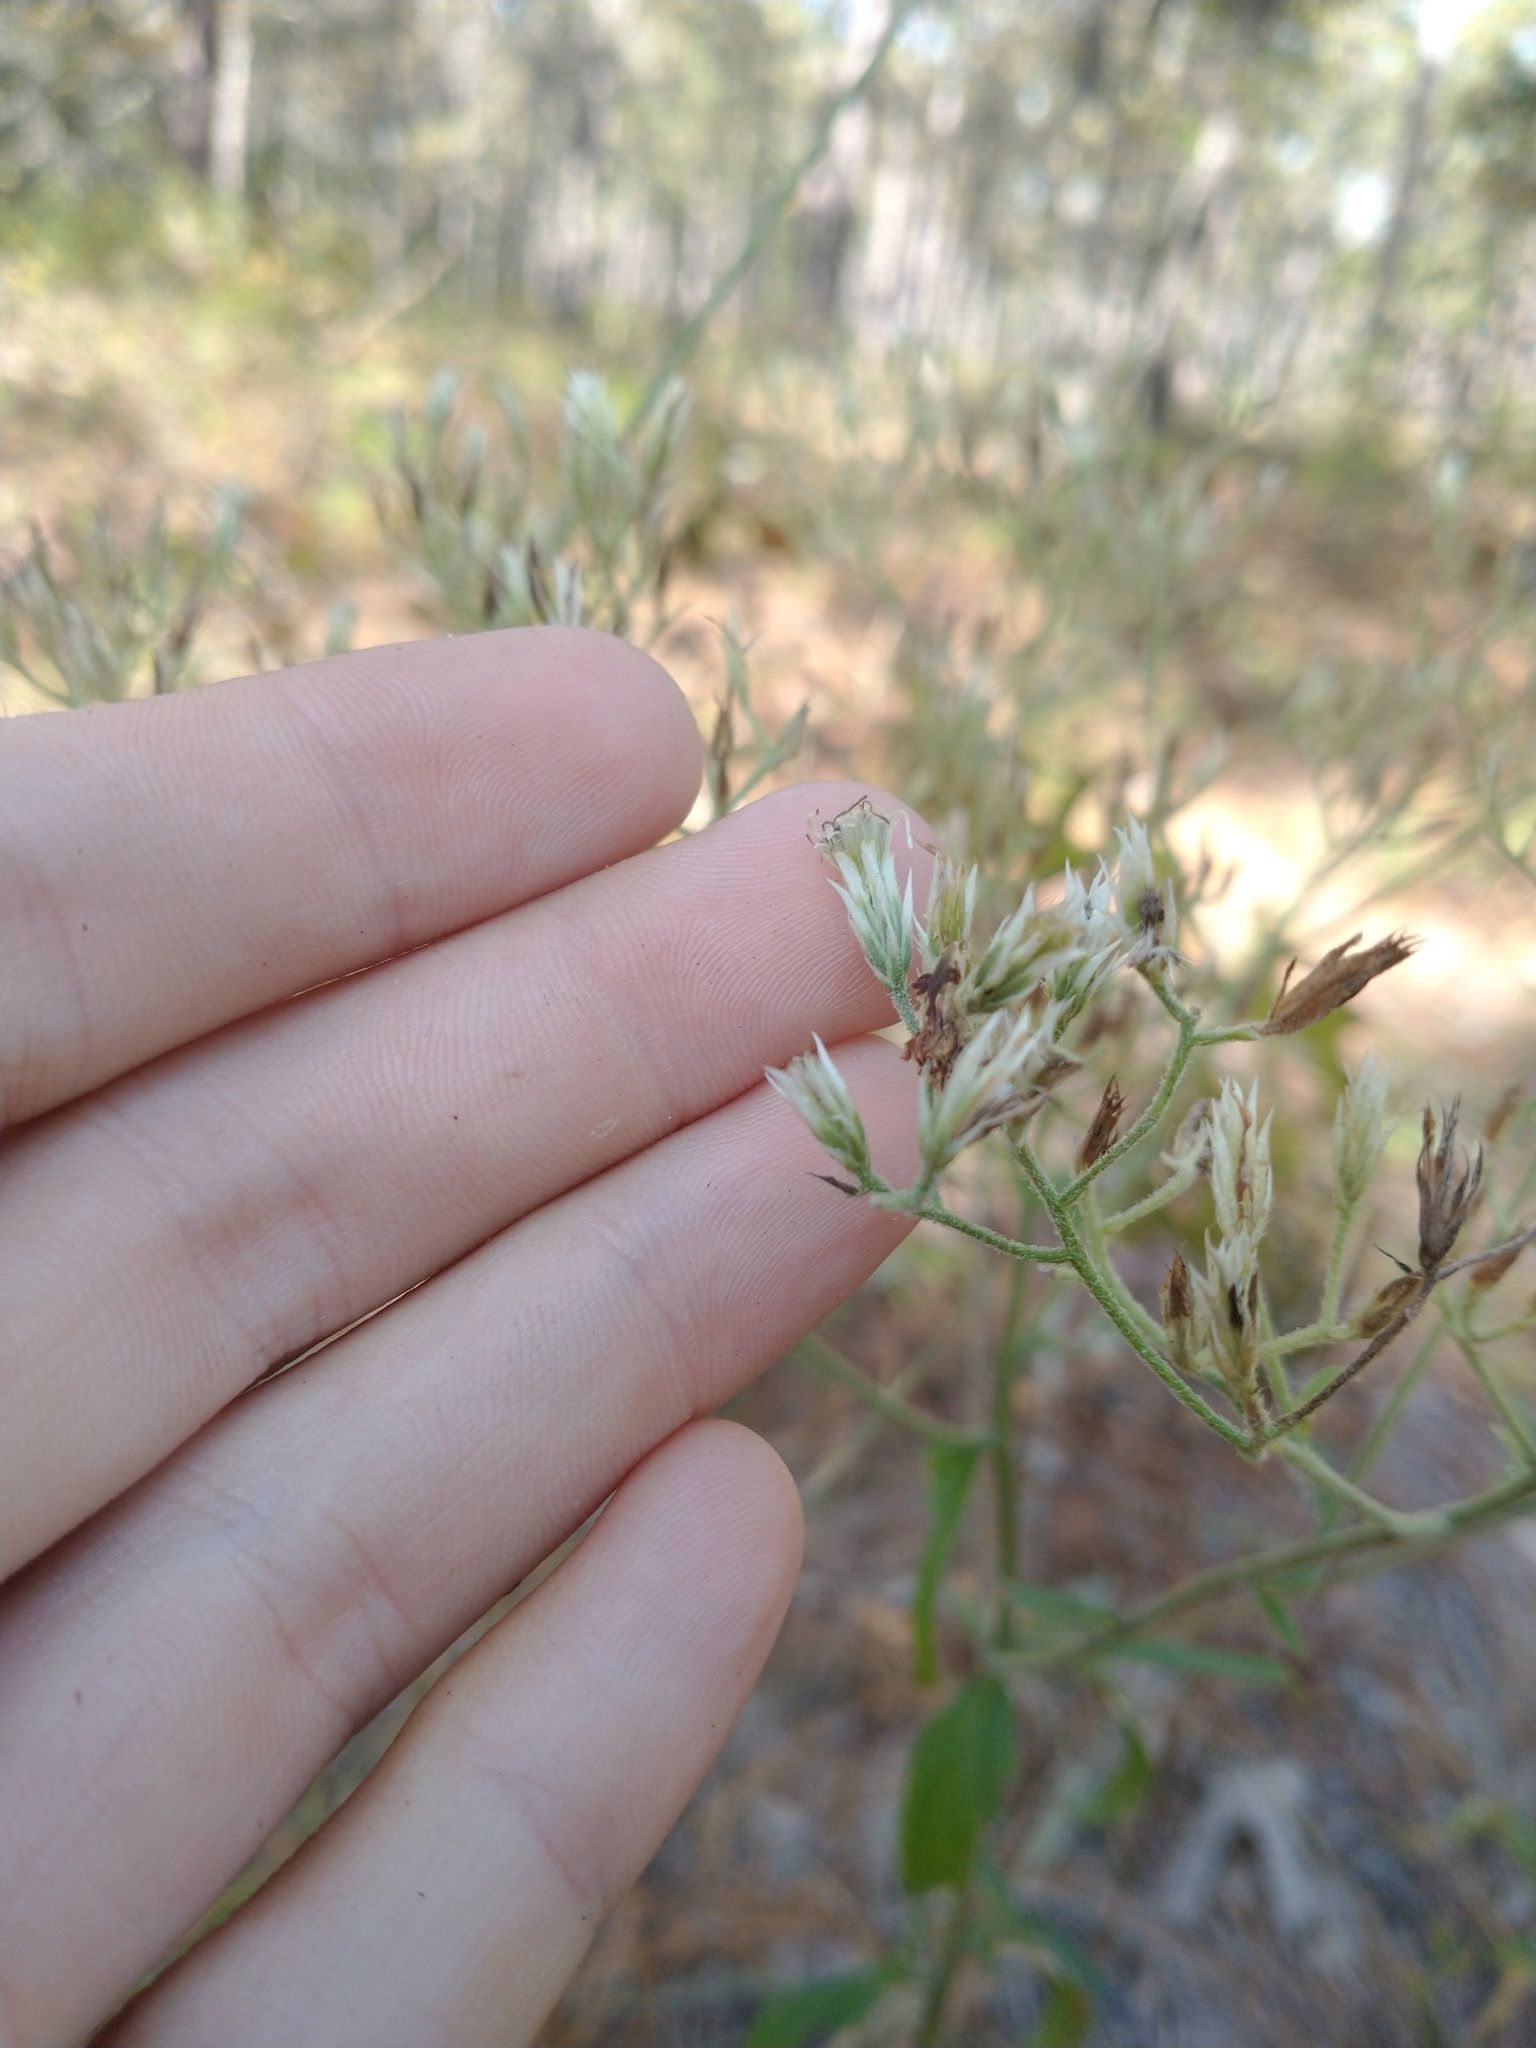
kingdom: Plantae
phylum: Tracheophyta
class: Magnoliopsida
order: Asterales
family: Asteraceae
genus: Eupatorium
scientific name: Eupatorium album
